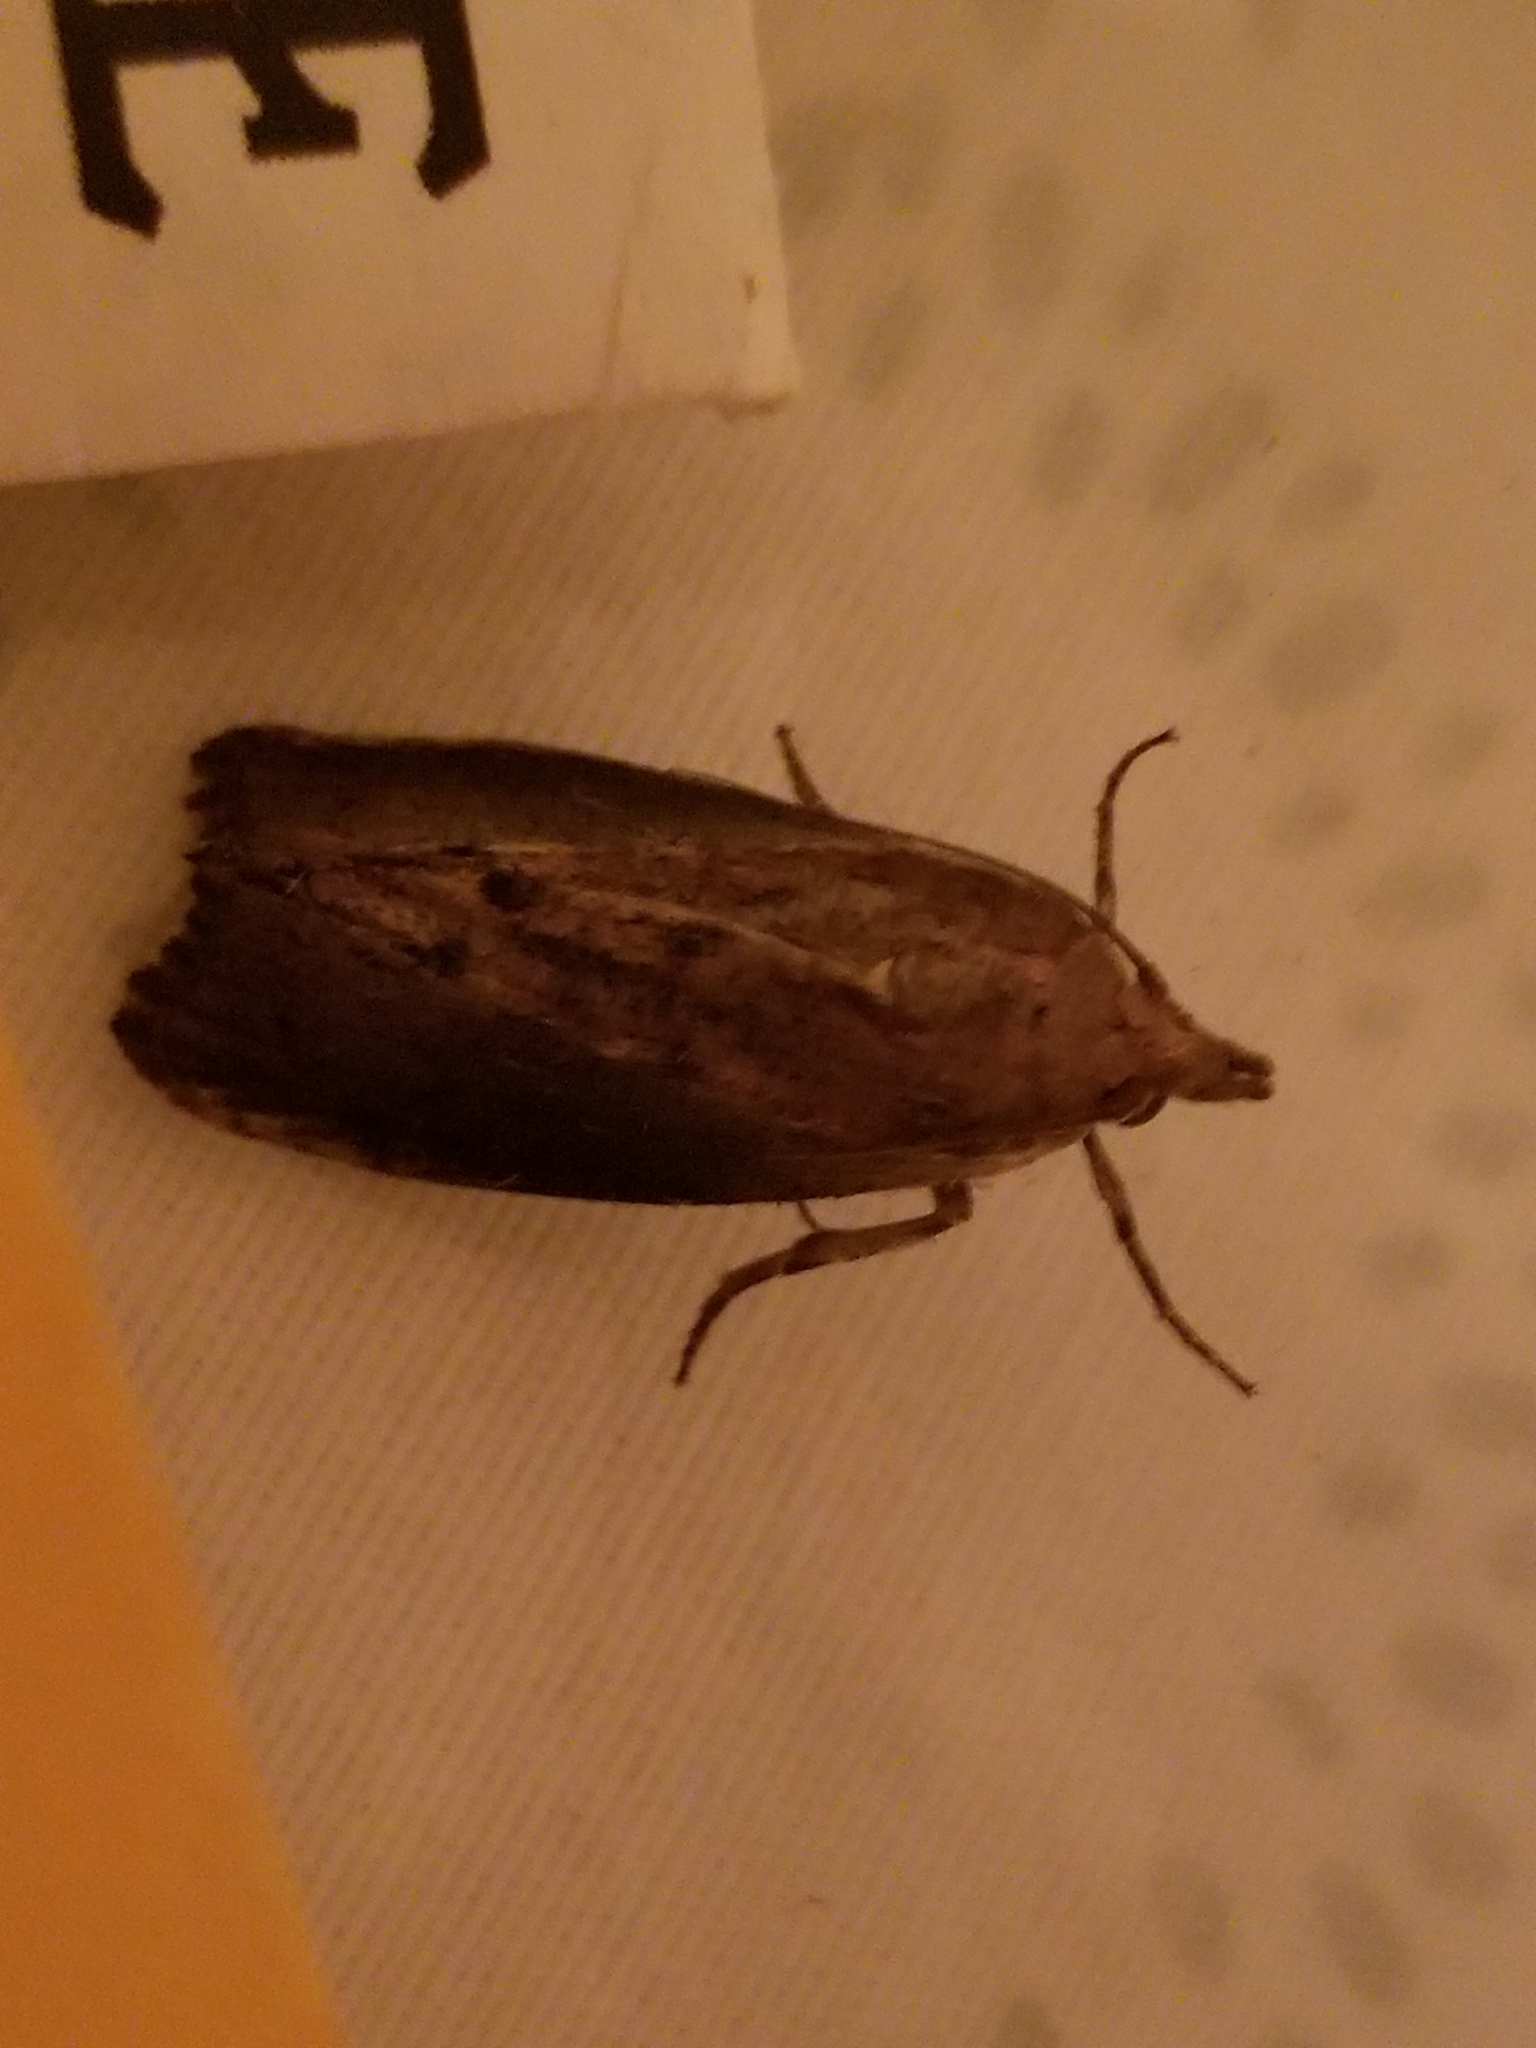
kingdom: Animalia
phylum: Arthropoda
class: Insecta
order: Lepidoptera
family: Pyralidae
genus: Galleria
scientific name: Galleria mellonella
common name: Greater wax moth
